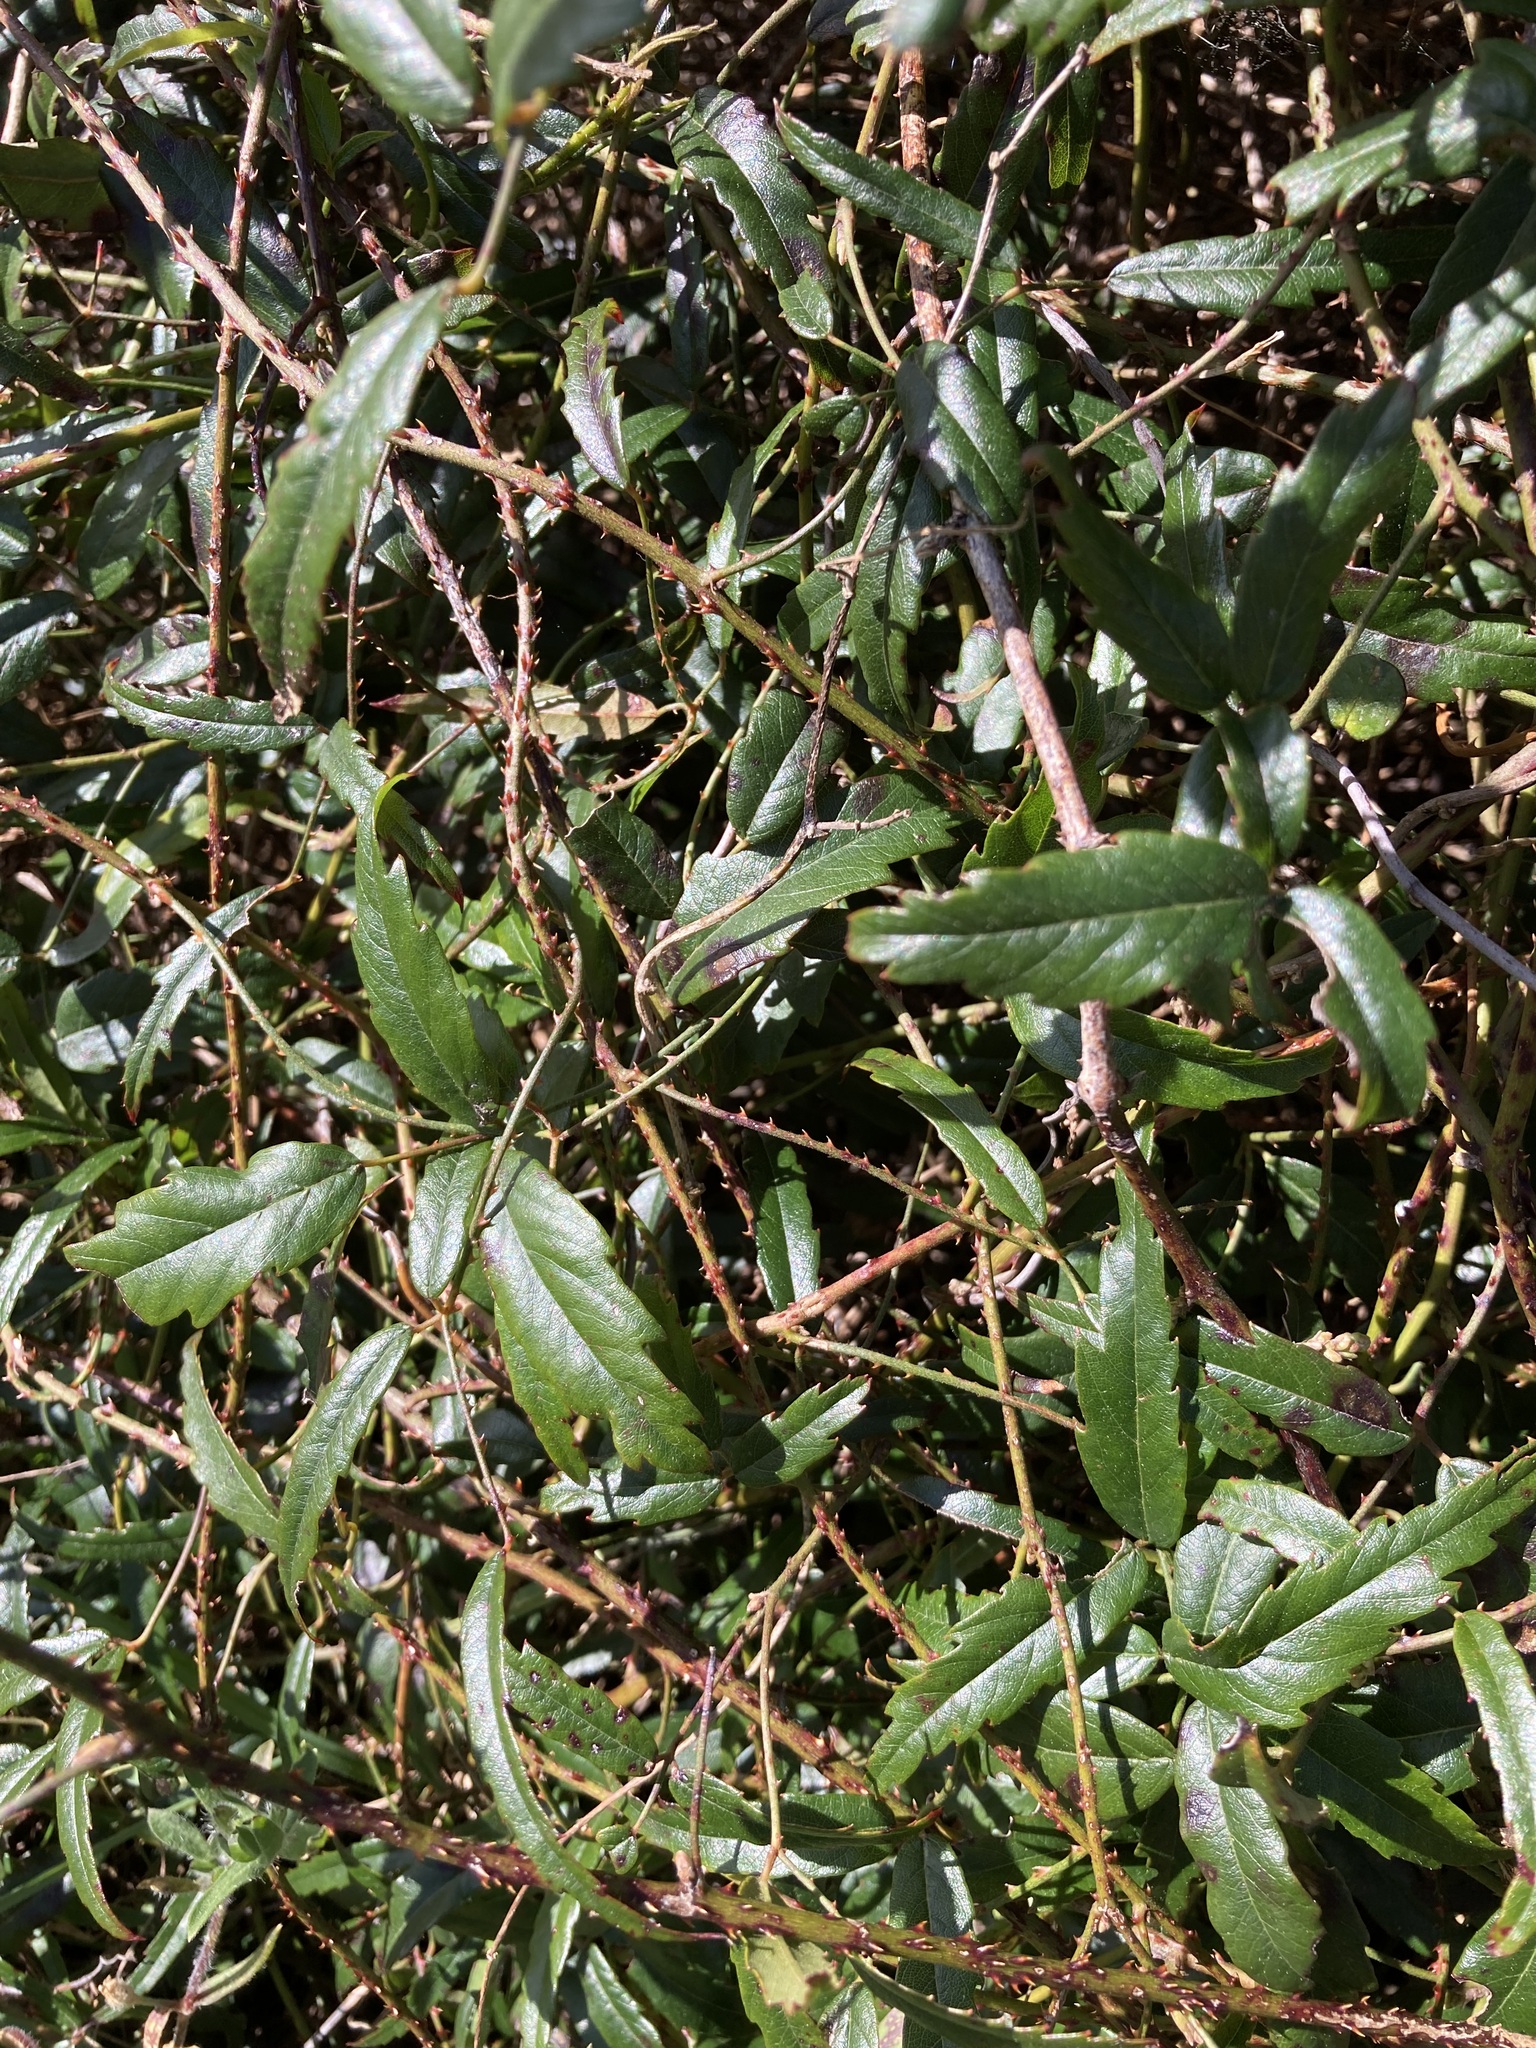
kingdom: Plantae
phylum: Tracheophyta
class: Magnoliopsida
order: Rosales
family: Rosaceae
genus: Rubus
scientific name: Rubus schmidelioides
